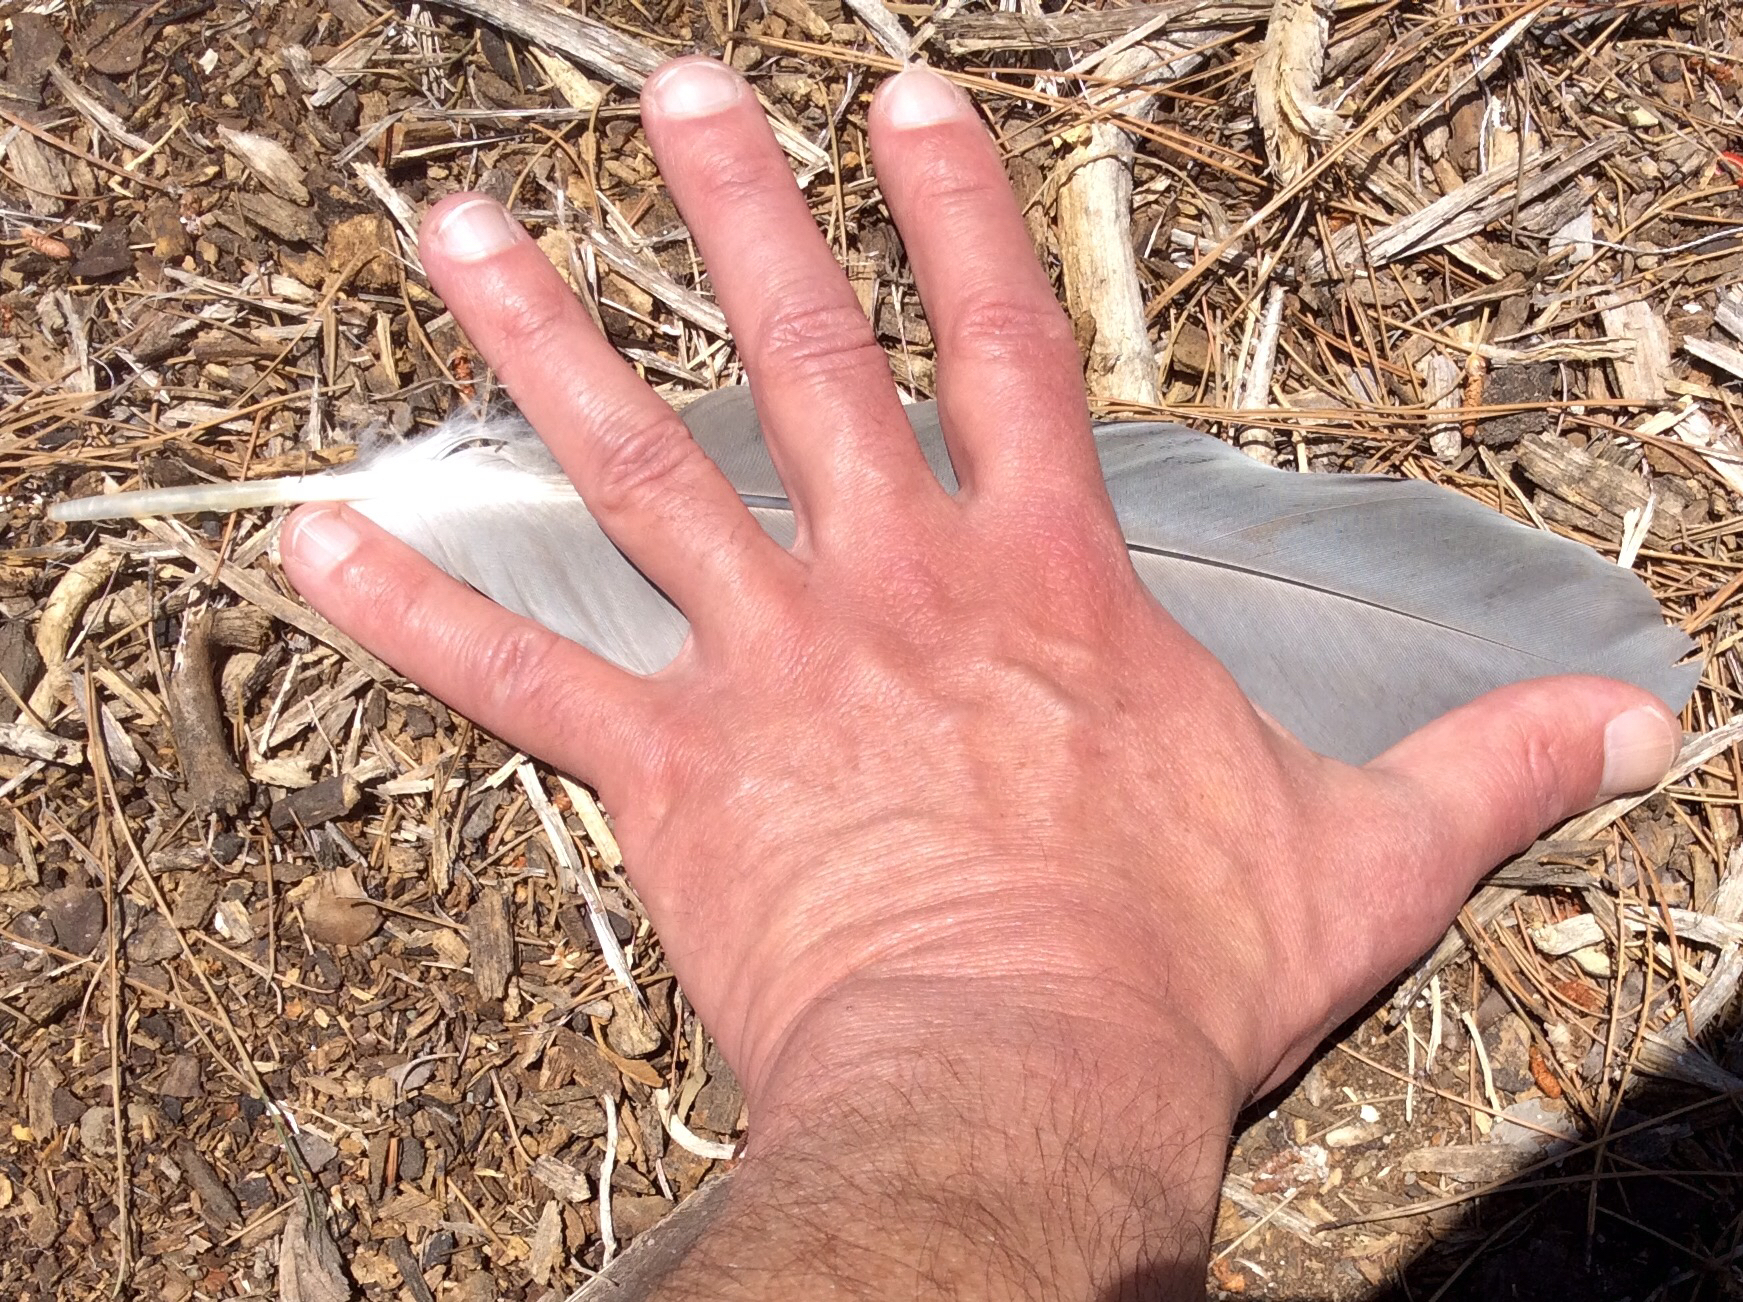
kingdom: Animalia
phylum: Chordata
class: Aves
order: Pelecaniformes
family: Ardeidae
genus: Ardea
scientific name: Ardea herodias
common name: Great blue heron
